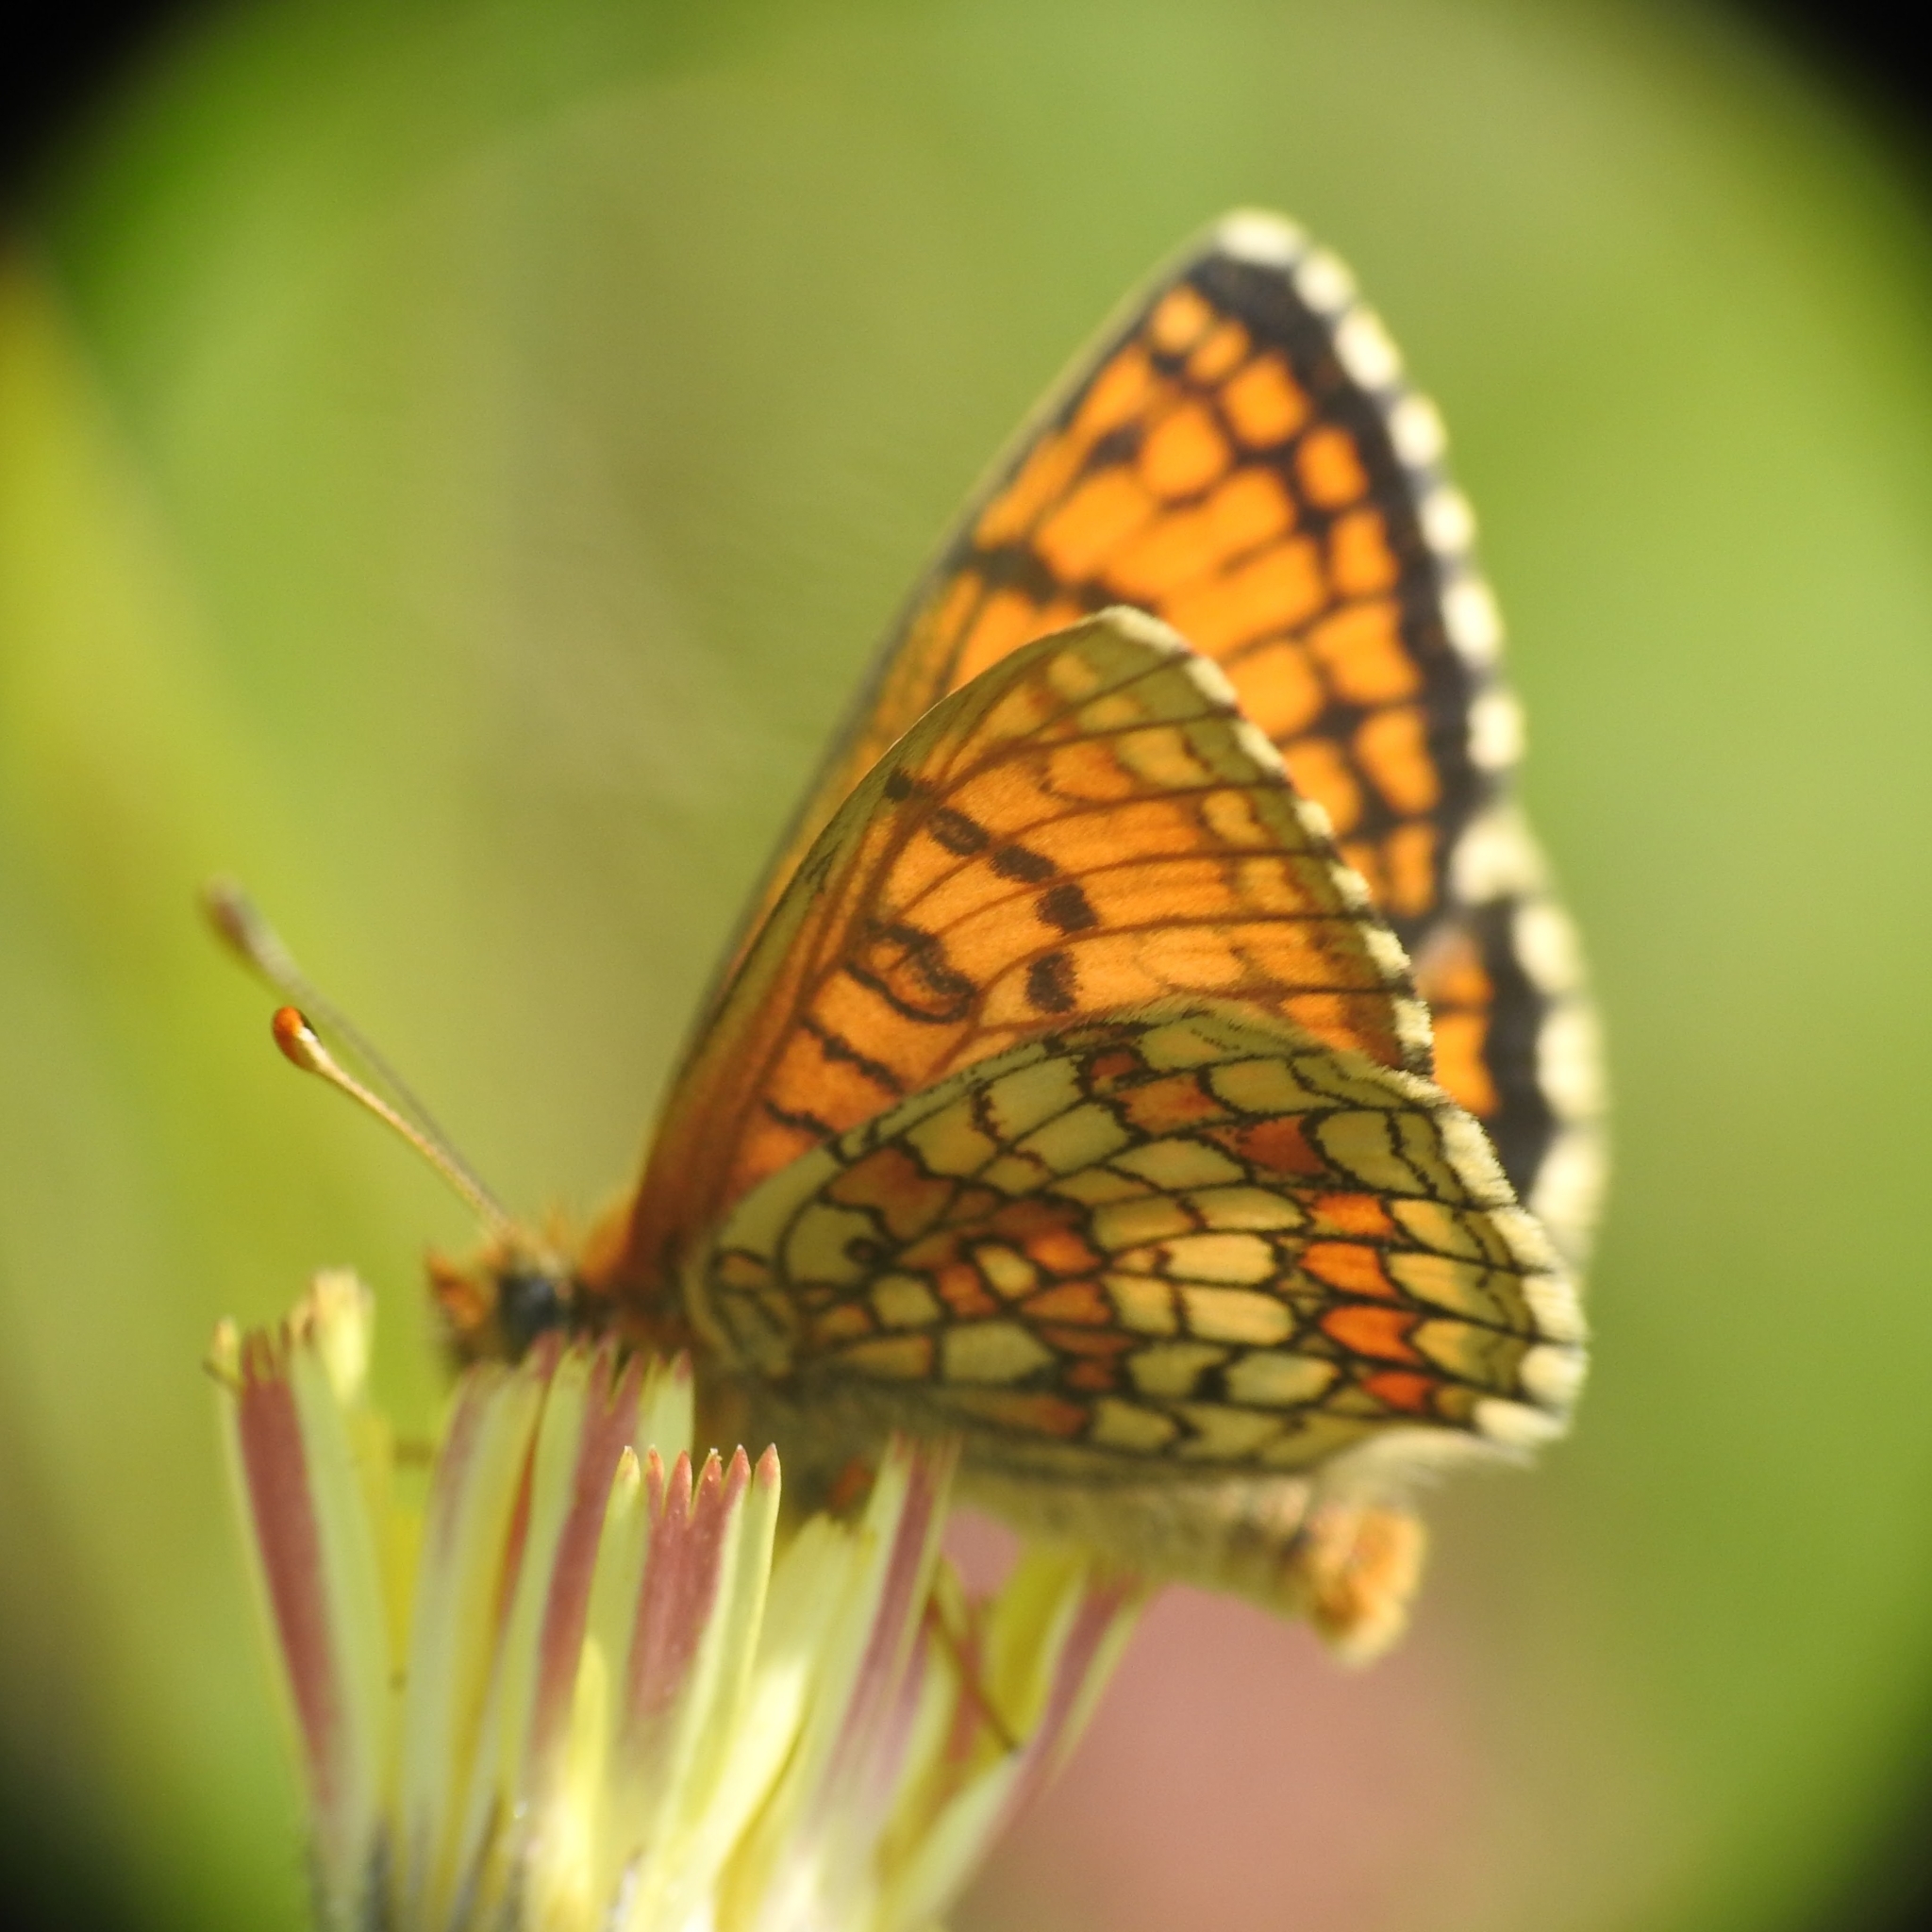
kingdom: Animalia
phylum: Arthropoda
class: Insecta
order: Lepidoptera
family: Nymphalidae
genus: Mellicta
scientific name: Mellicta parthenoides
